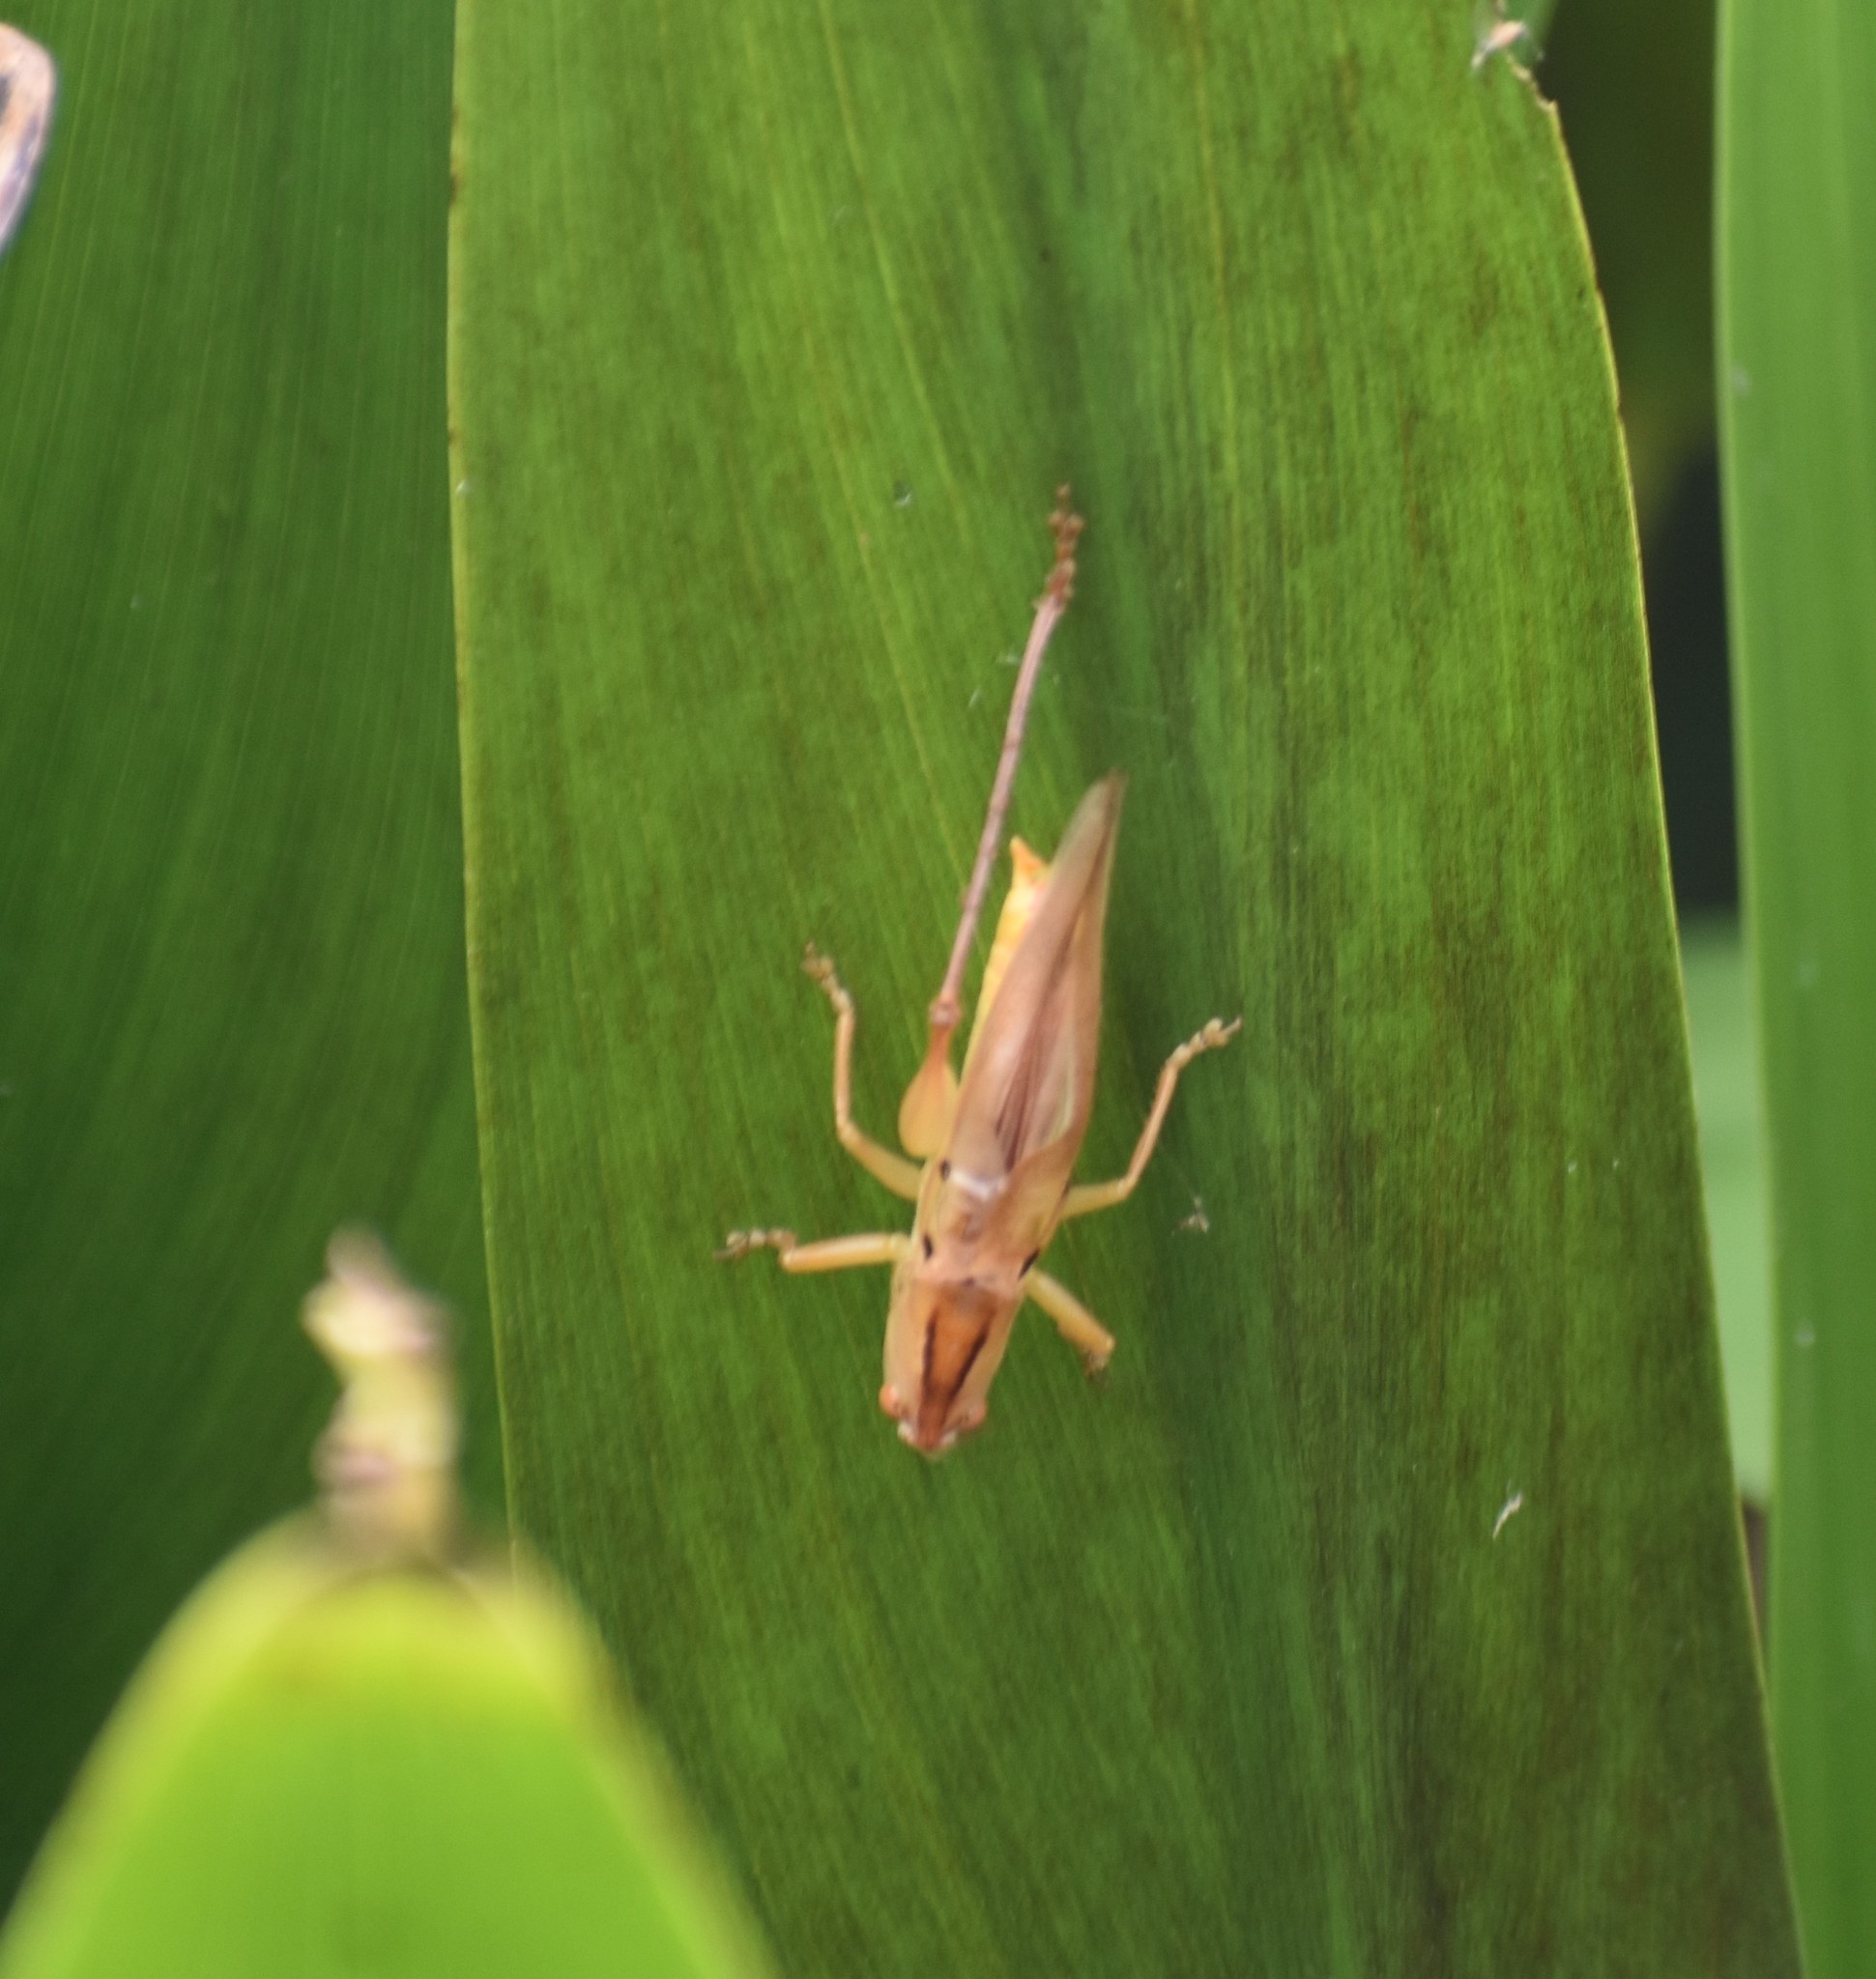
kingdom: Animalia
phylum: Arthropoda
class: Insecta
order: Orthoptera
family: Tettigoniidae
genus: Neoconocephalus
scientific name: Neoconocephalus triops
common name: Broad-tipped conehead
